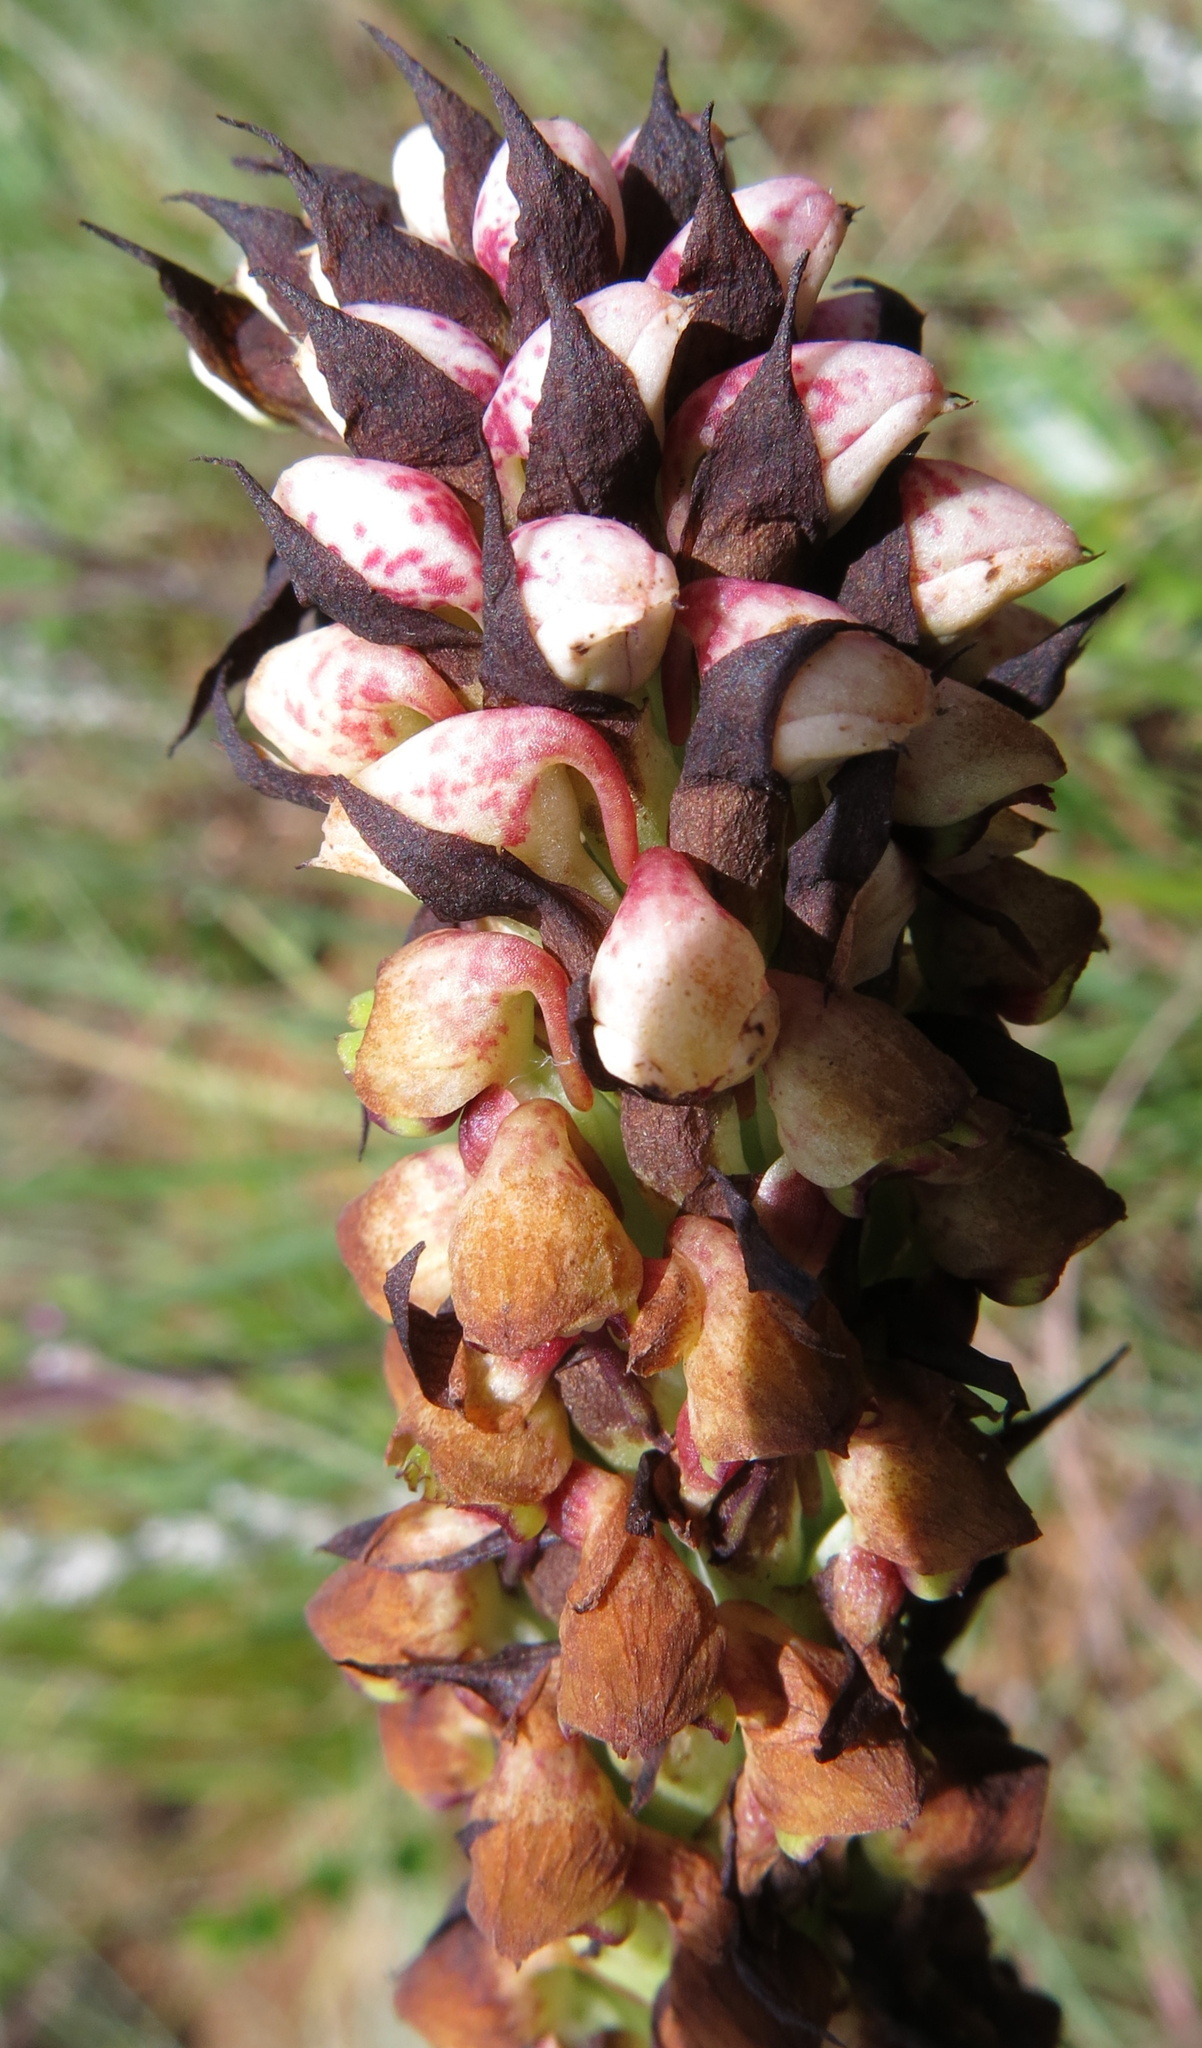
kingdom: Plantae
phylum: Tracheophyta
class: Liliopsida
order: Asparagales
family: Orchidaceae
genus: Disa
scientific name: Disa versicolor
